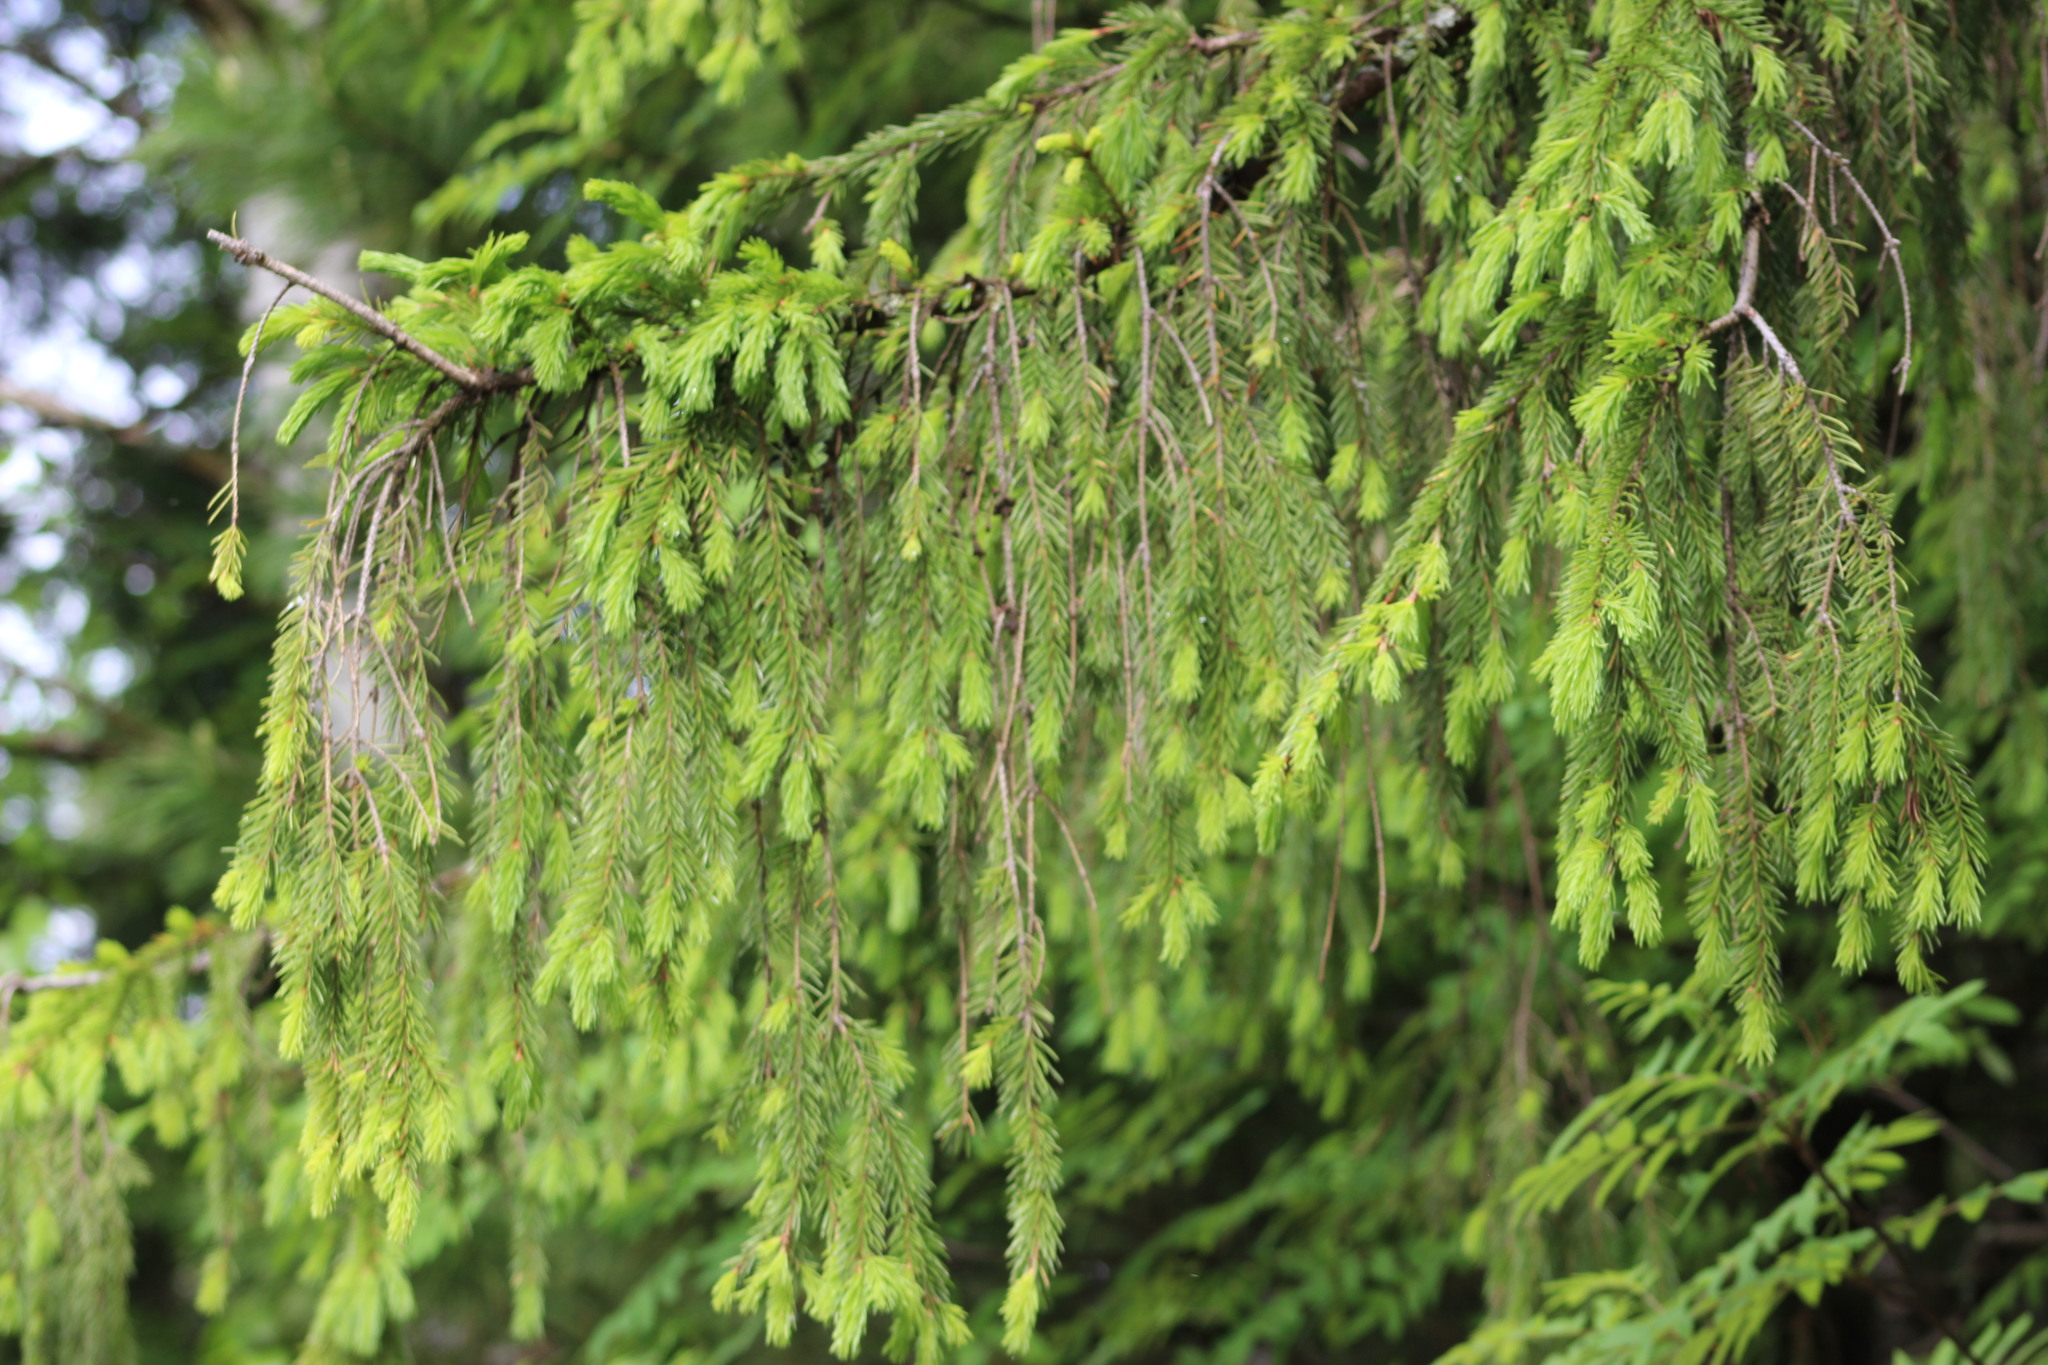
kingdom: Plantae
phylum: Tracheophyta
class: Pinopsida
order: Pinales
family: Pinaceae
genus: Picea
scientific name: Picea obovata
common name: Siberian spruce
